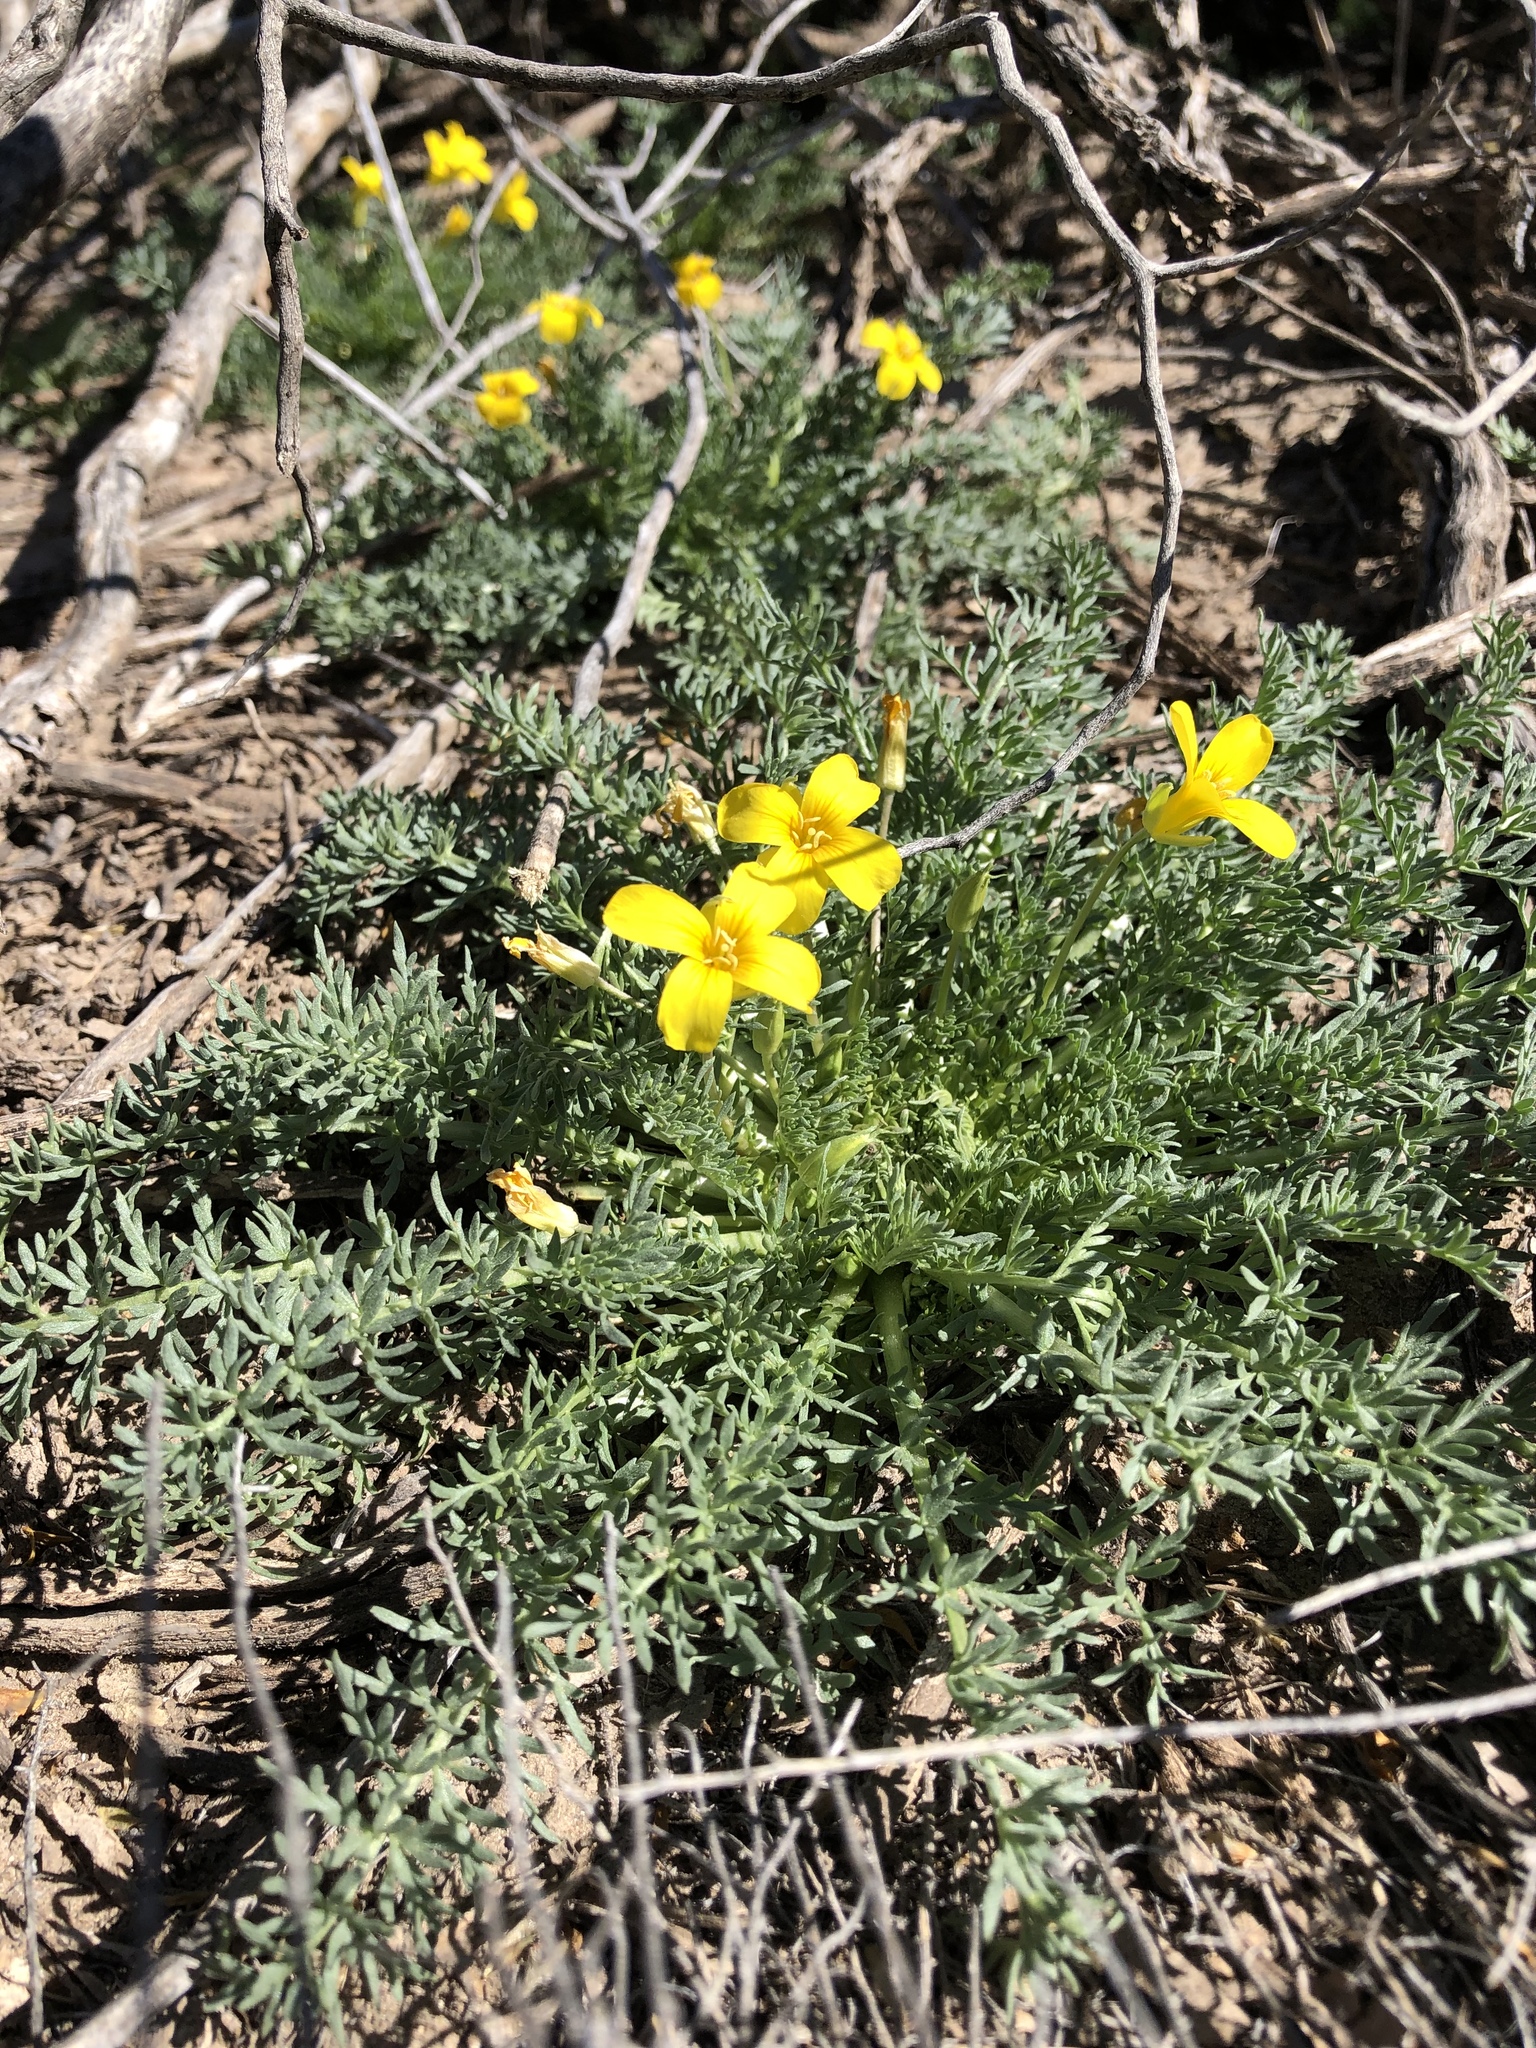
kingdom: Plantae
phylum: Tracheophyta
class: Magnoliopsida
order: Brassicales
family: Brassicaceae
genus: Selenia
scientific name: Selenia dissecta
